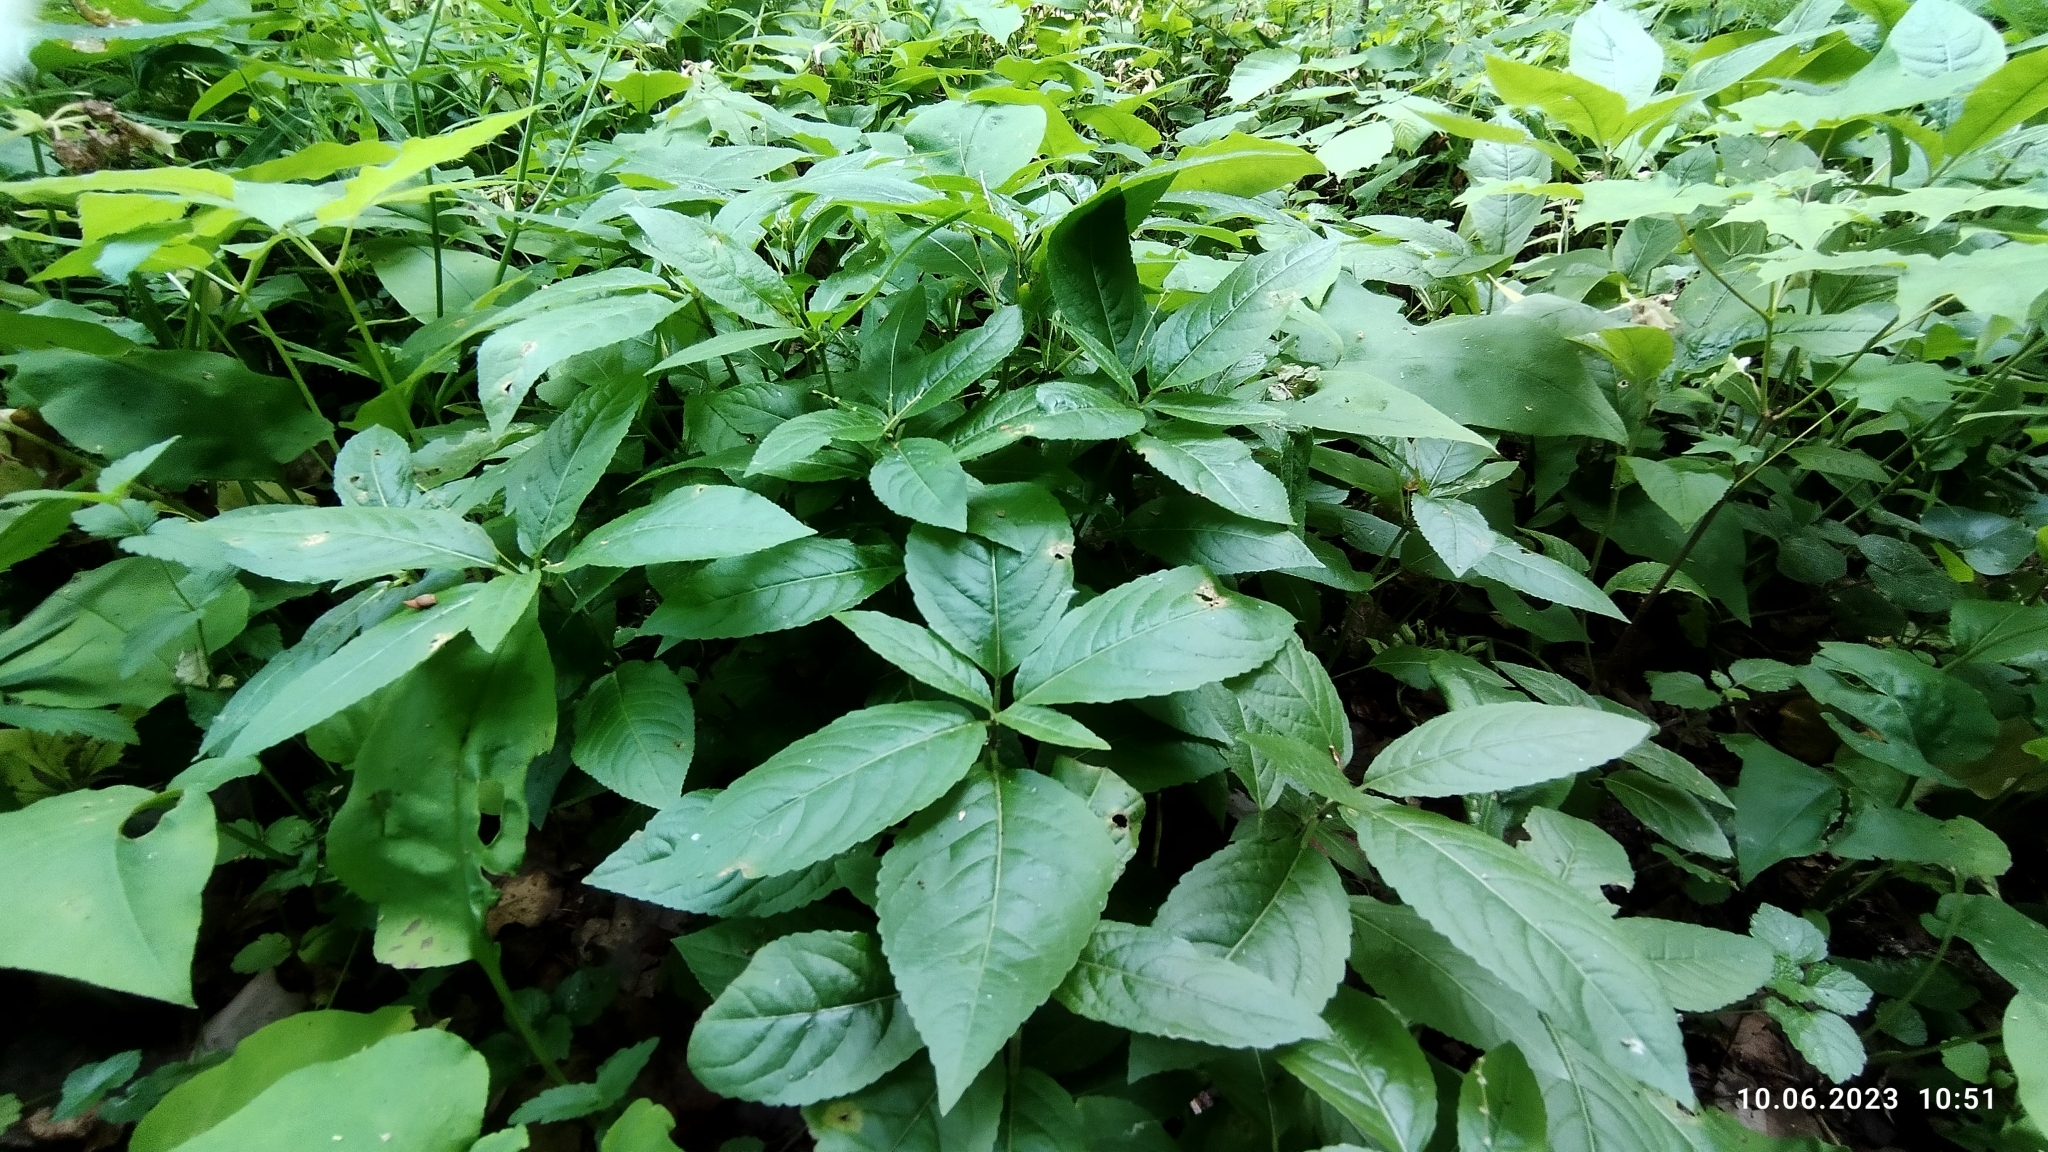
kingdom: Plantae
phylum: Tracheophyta
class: Magnoliopsida
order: Malpighiales
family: Euphorbiaceae
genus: Mercurialis
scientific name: Mercurialis perennis
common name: Dog mercury
